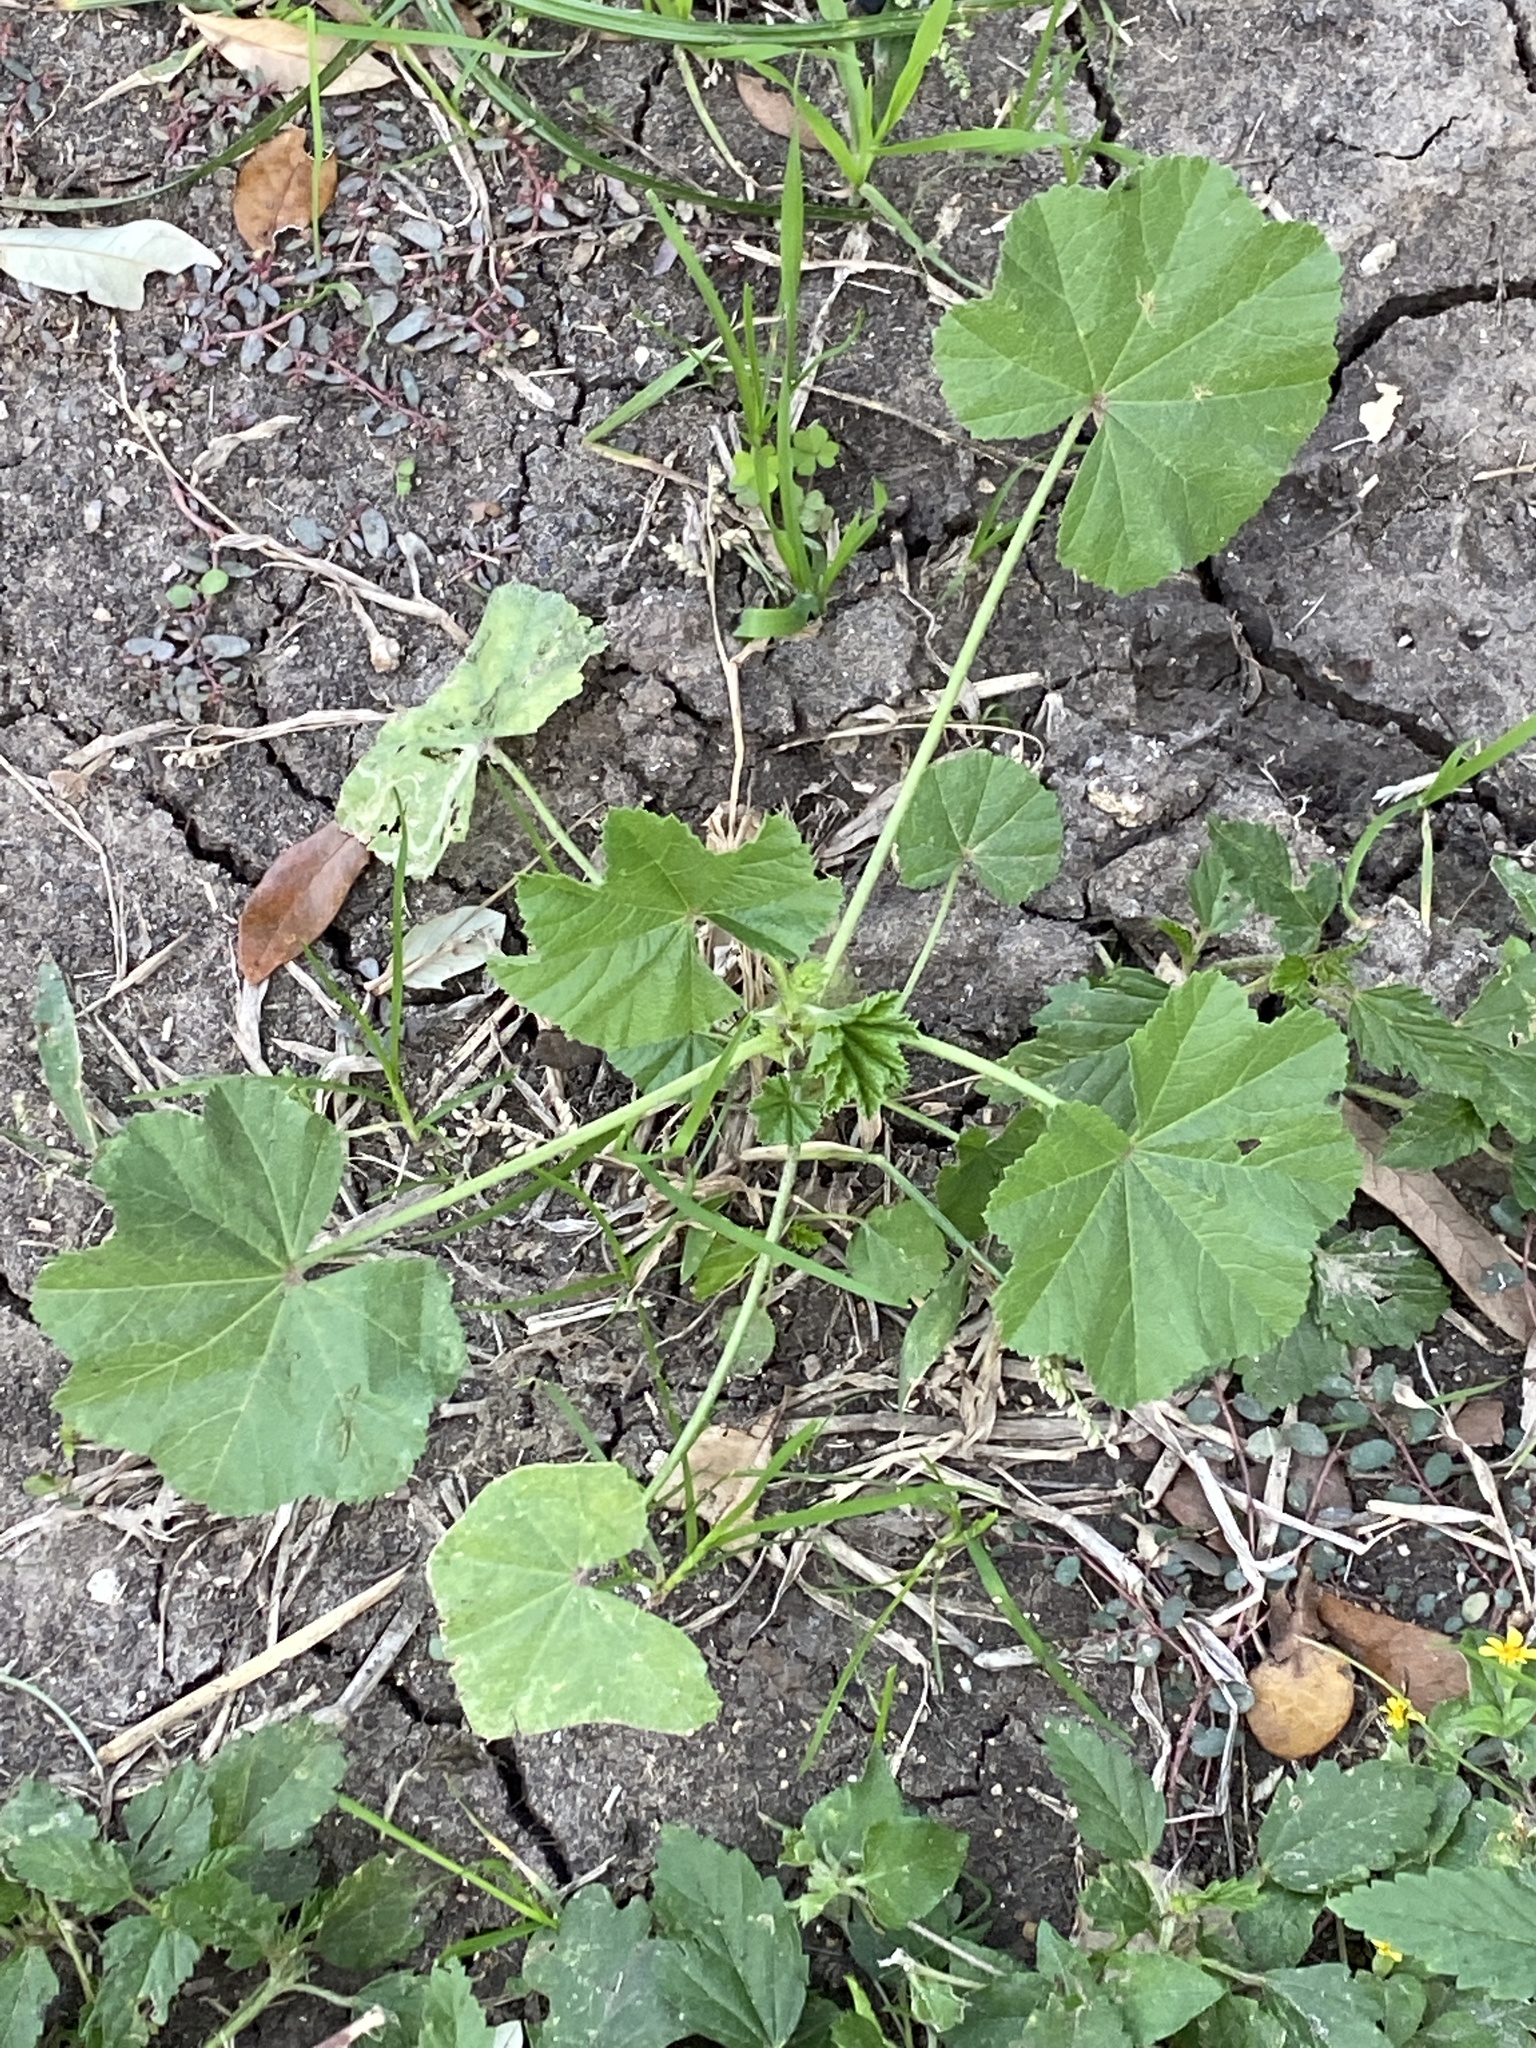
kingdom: Plantae
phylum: Tracheophyta
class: Magnoliopsida
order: Malvales
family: Malvaceae
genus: Malva
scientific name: Malva parviflora
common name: Least mallow
